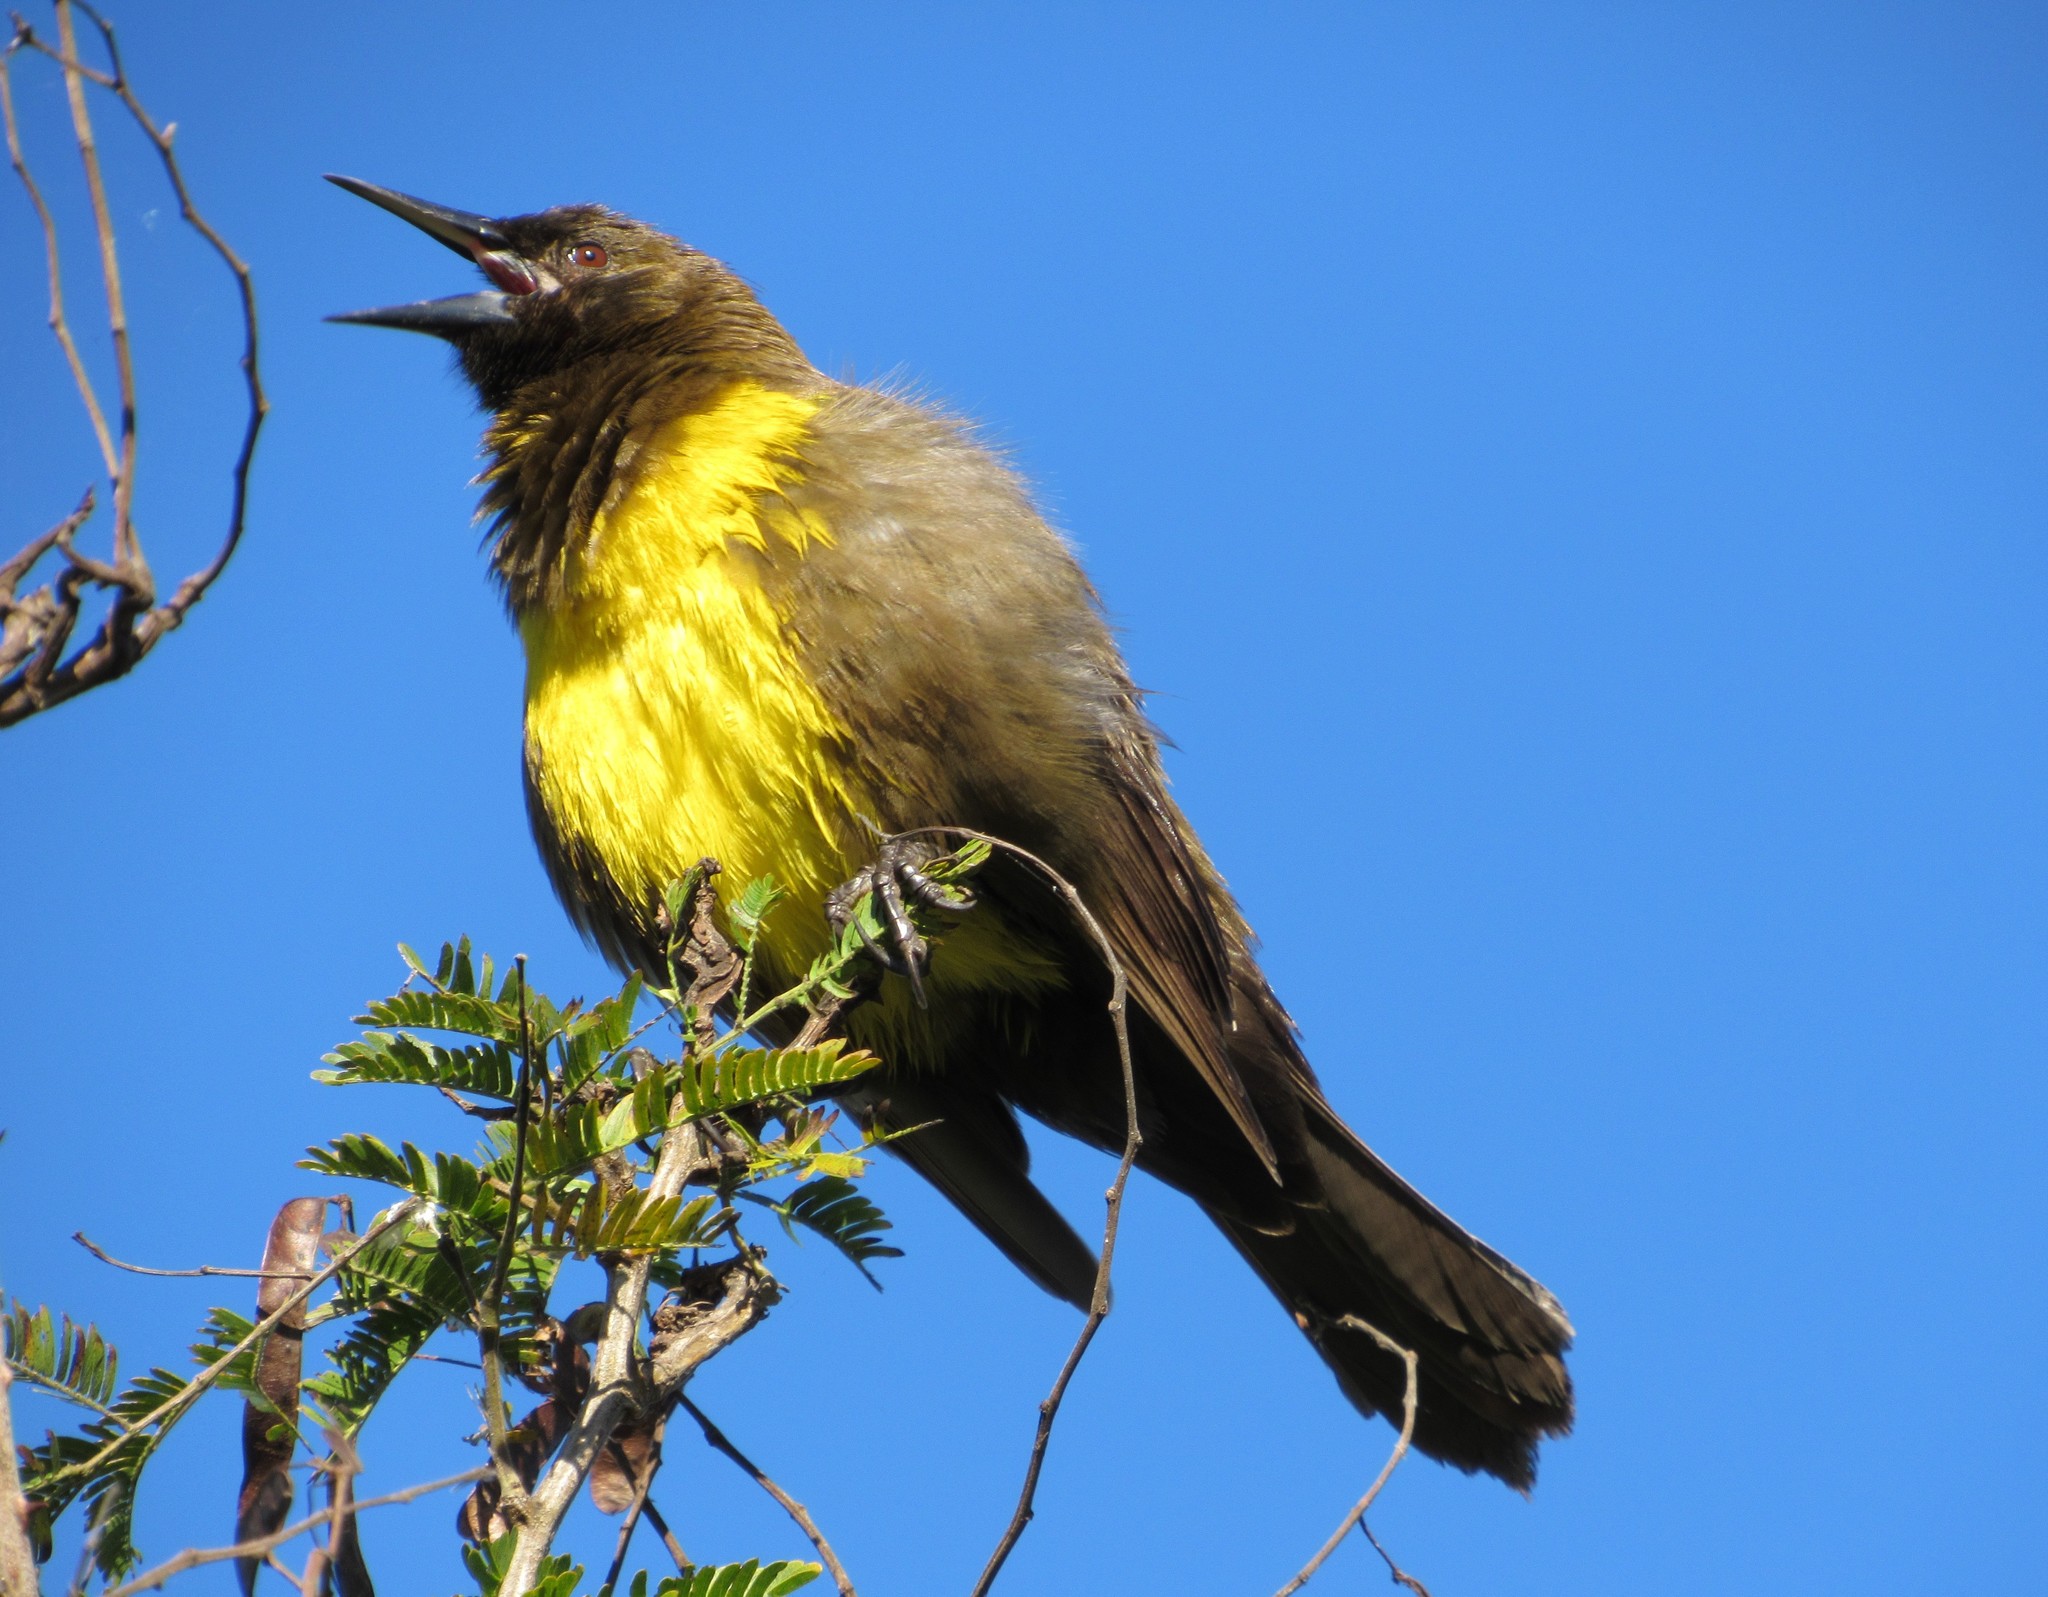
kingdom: Animalia
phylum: Chordata
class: Aves
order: Passeriformes
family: Icteridae
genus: Pseudoleistes
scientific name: Pseudoleistes virescens
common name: Brown-and-yellow marshbird
